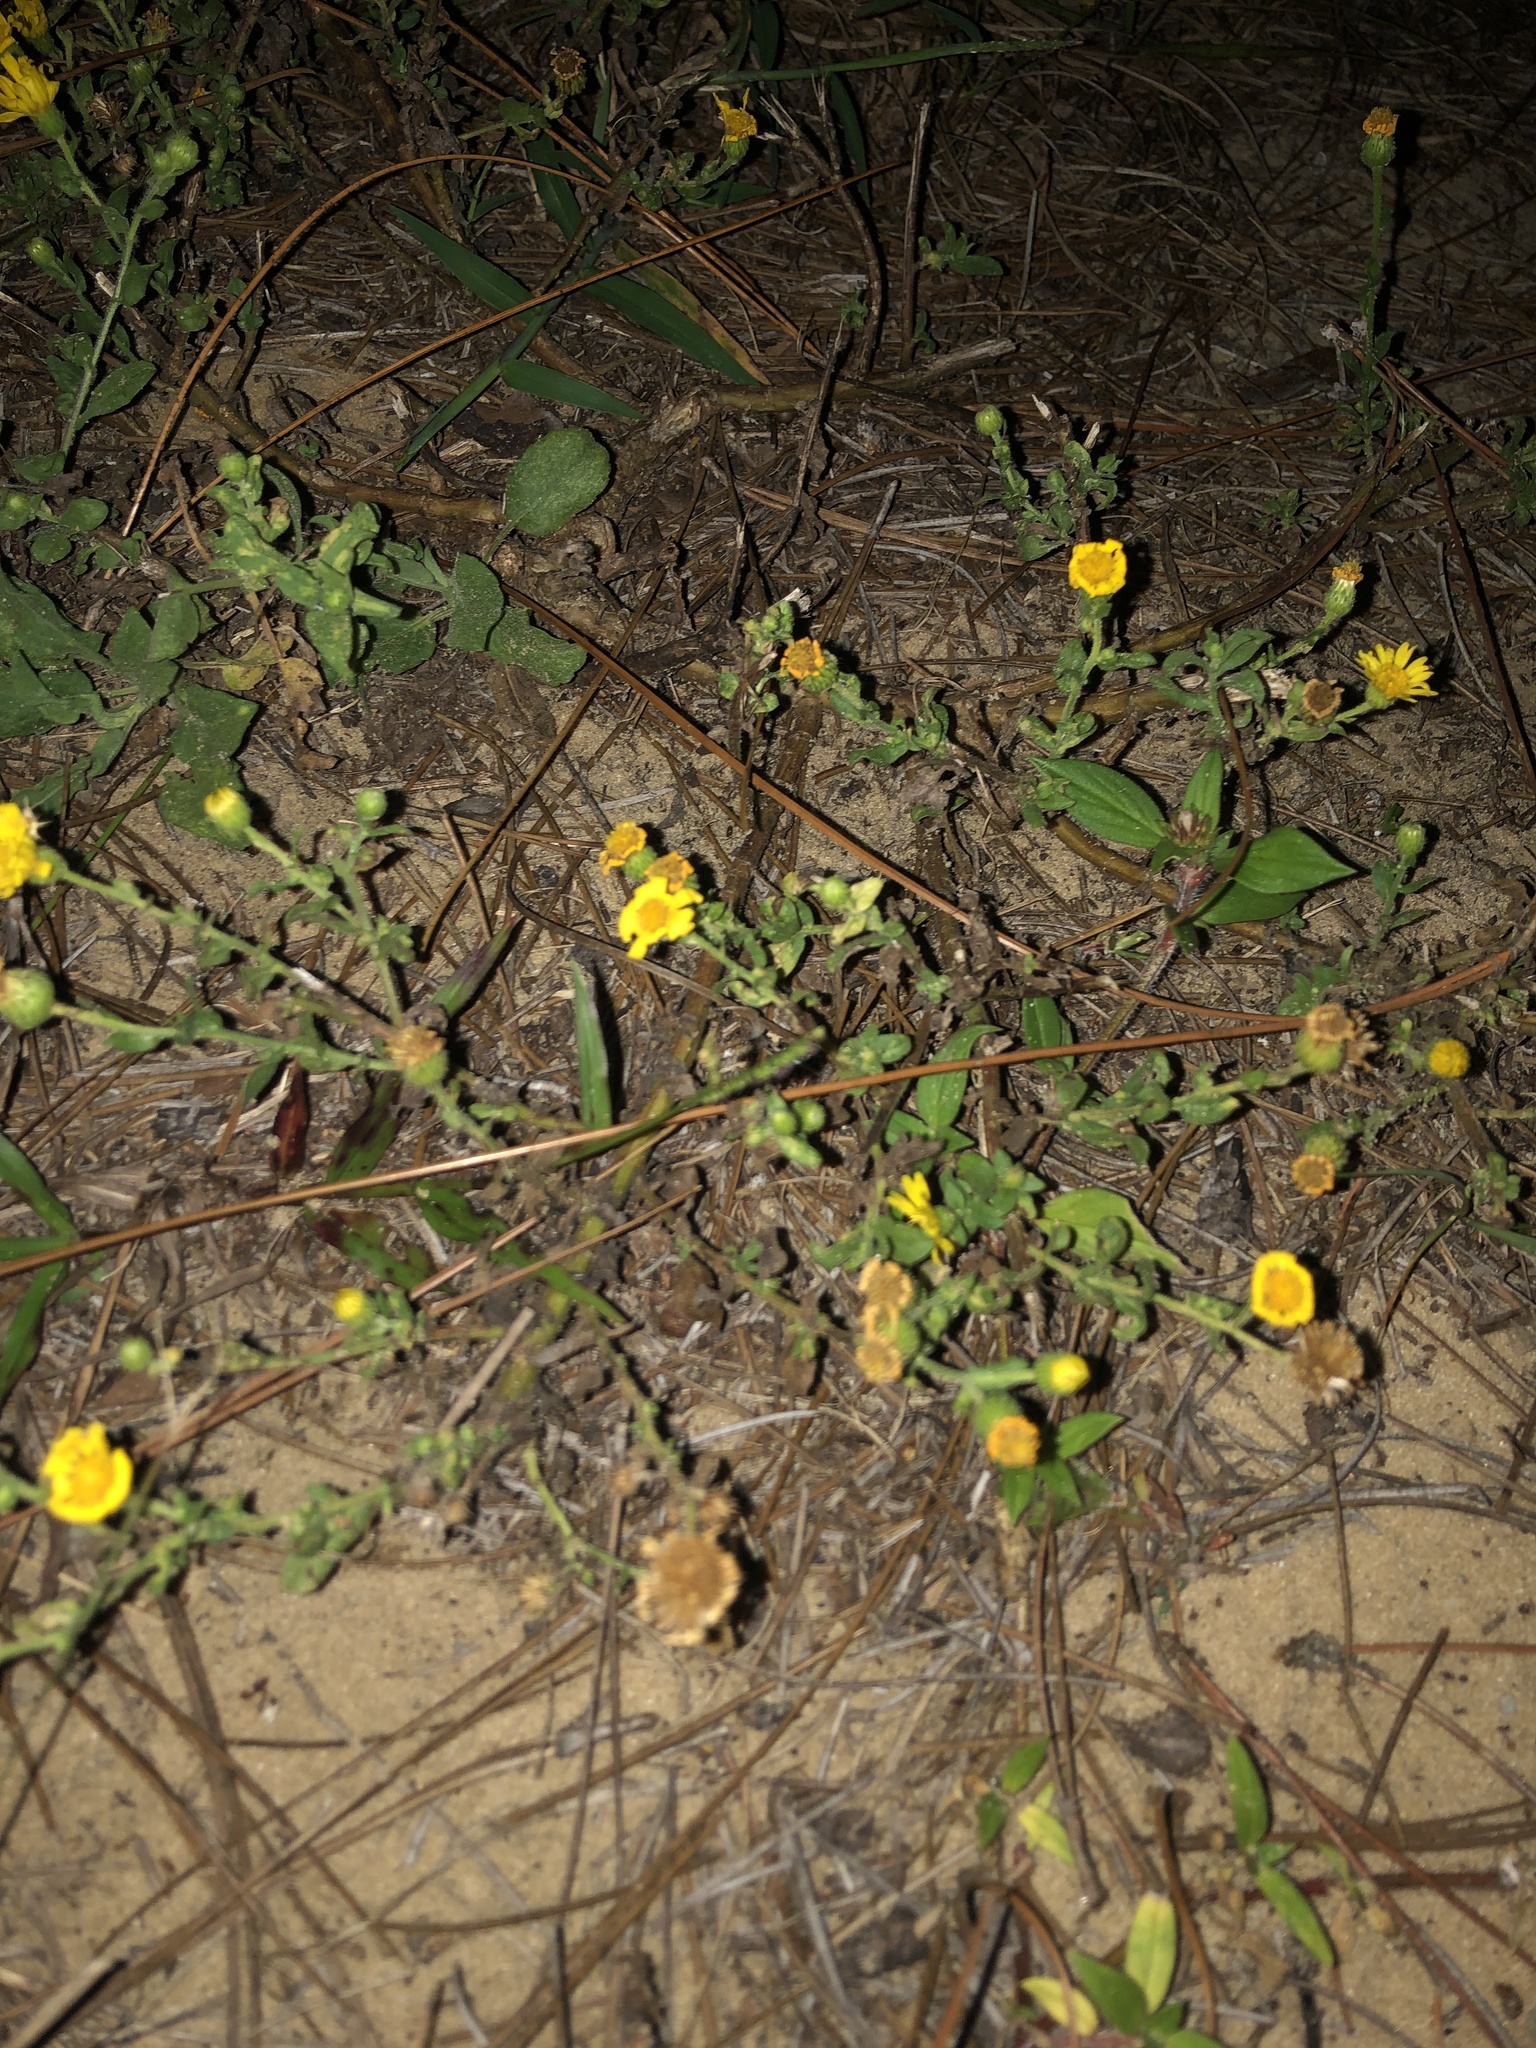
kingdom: Plantae
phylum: Tracheophyta
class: Magnoliopsida
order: Asterales
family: Asteraceae
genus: Heterotheca
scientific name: Heterotheca subaxillaris
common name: Camphorweed
